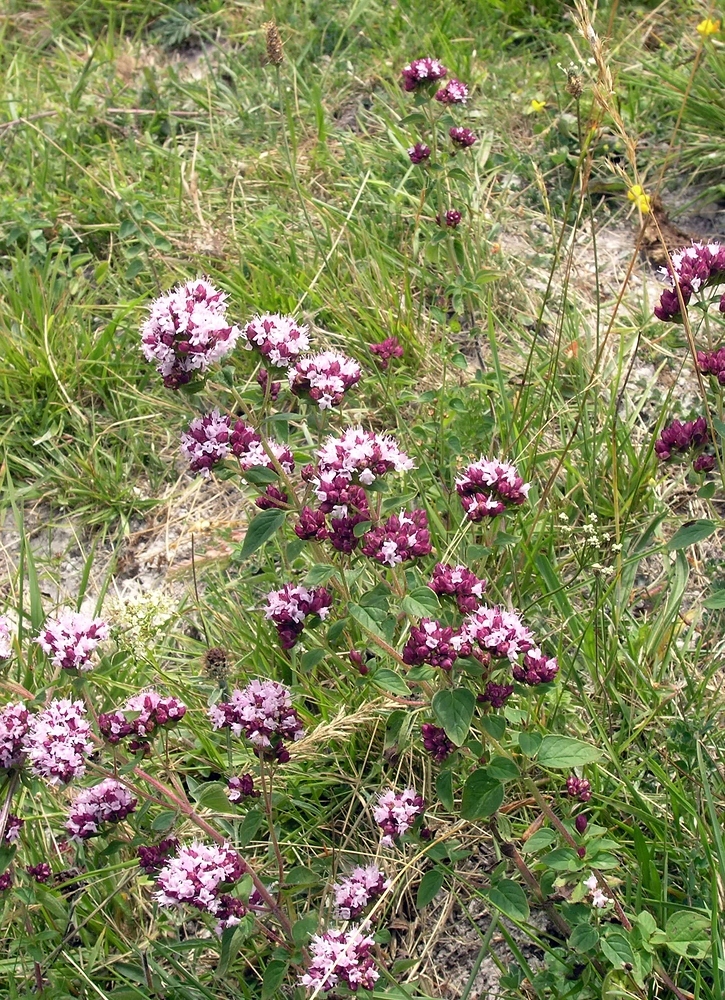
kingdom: Plantae
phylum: Tracheophyta
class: Magnoliopsida
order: Lamiales
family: Lamiaceae
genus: Origanum
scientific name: Origanum vulgare
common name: Wild marjoram
